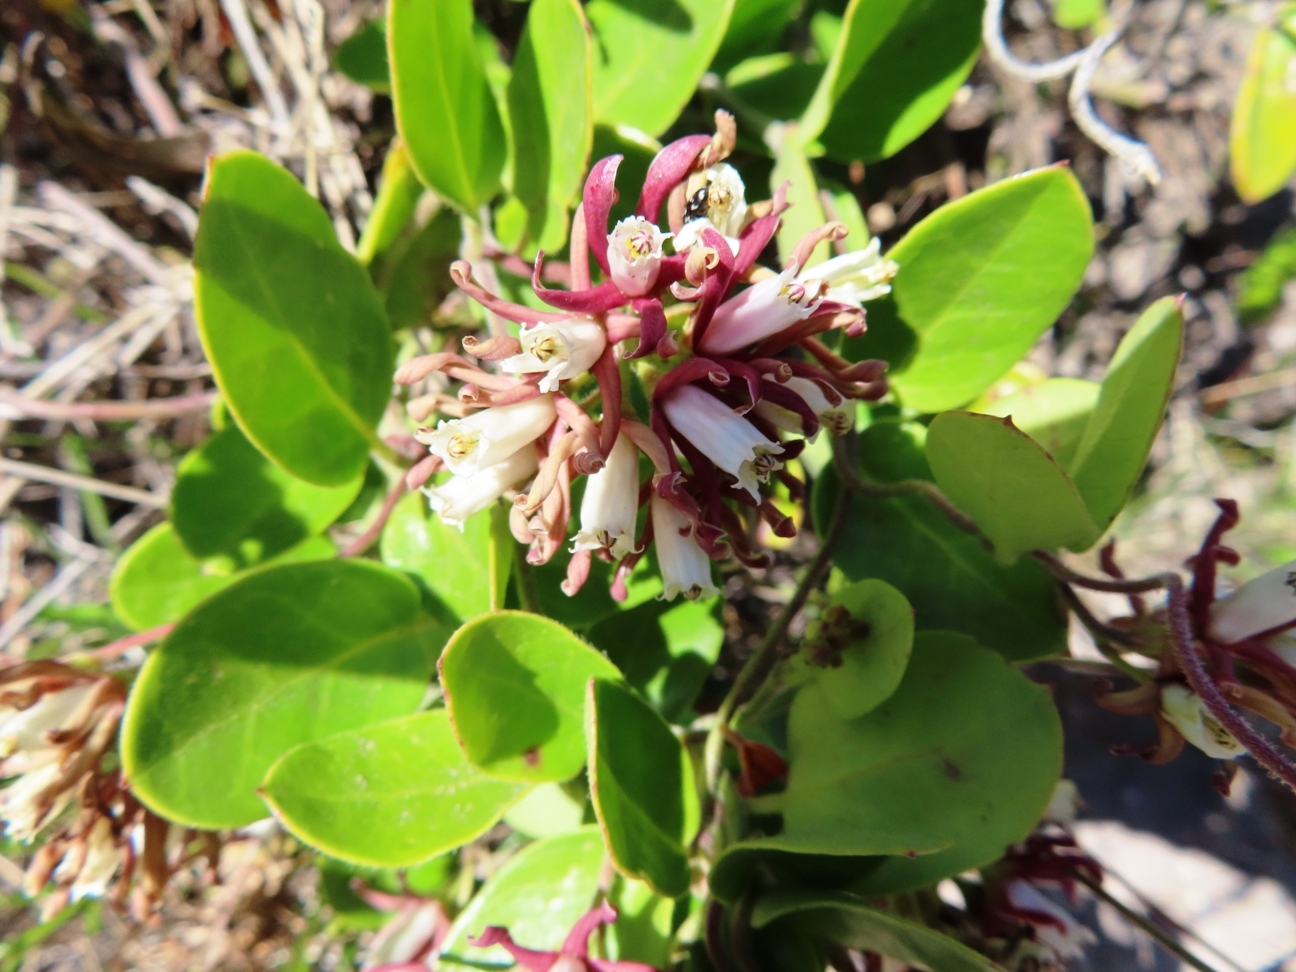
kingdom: Plantae
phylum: Tracheophyta
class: Magnoliopsida
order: Gentianales
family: Apocynaceae
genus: Cynanchum
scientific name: Cynanchum africanum
